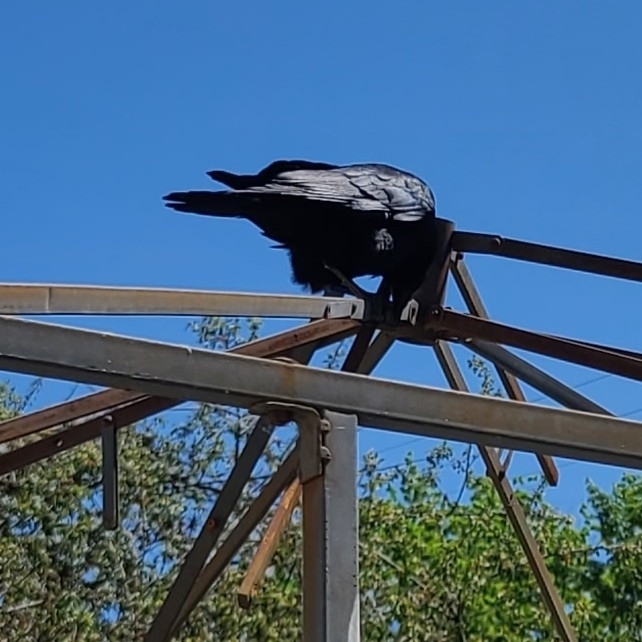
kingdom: Animalia
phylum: Chordata
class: Aves
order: Passeriformes
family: Corvidae
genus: Corvus
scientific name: Corvus brachyrhynchos
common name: American crow
